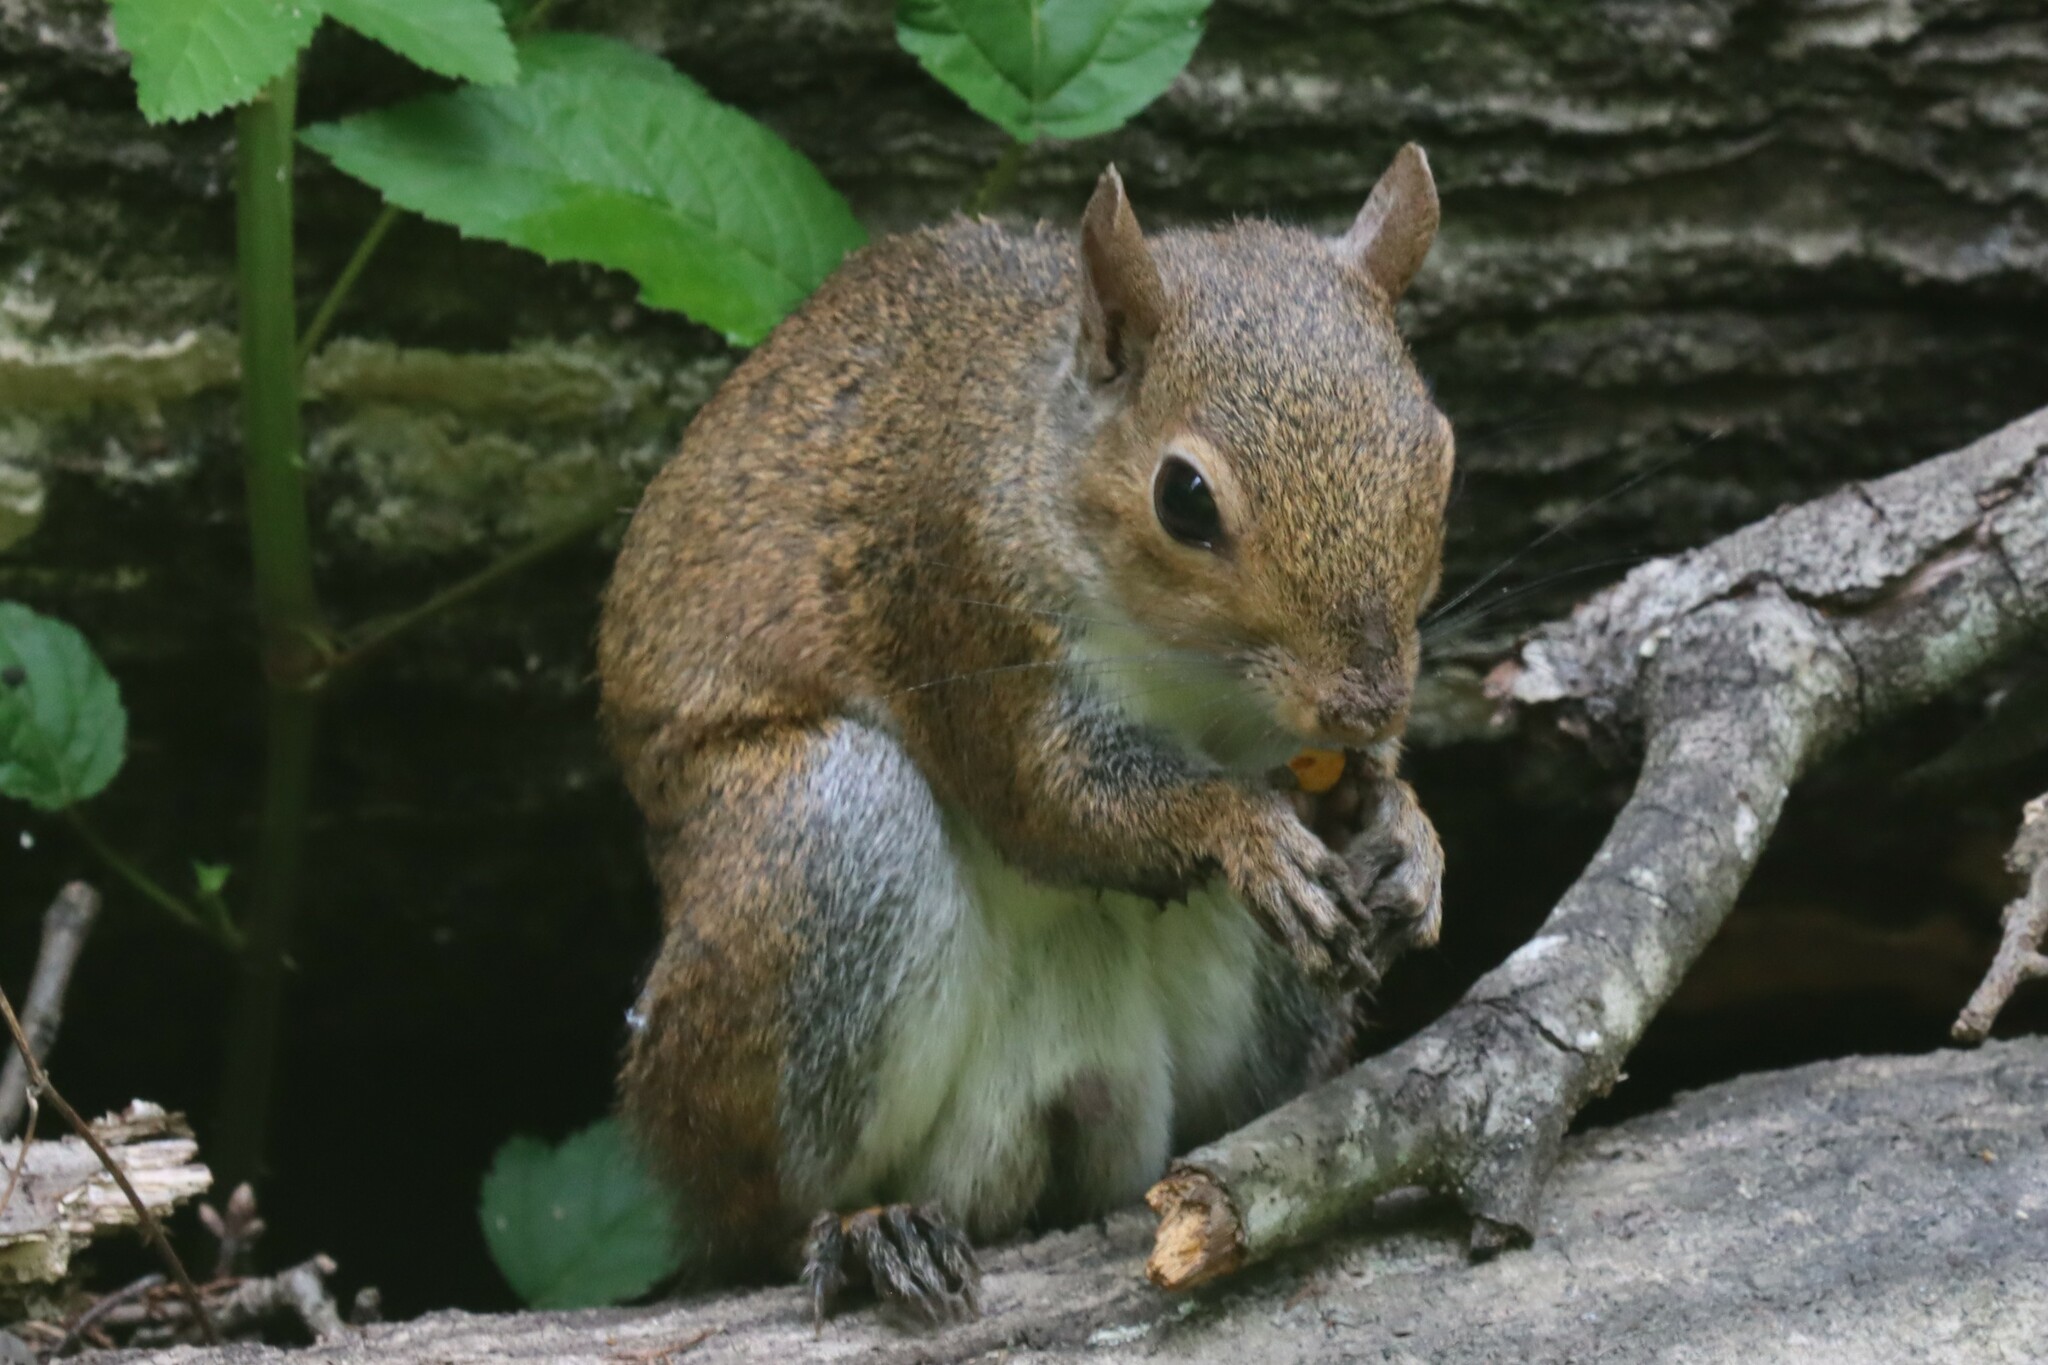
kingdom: Animalia
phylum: Chordata
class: Mammalia
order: Rodentia
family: Sciuridae
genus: Sciurus
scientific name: Sciurus carolinensis
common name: Eastern gray squirrel
